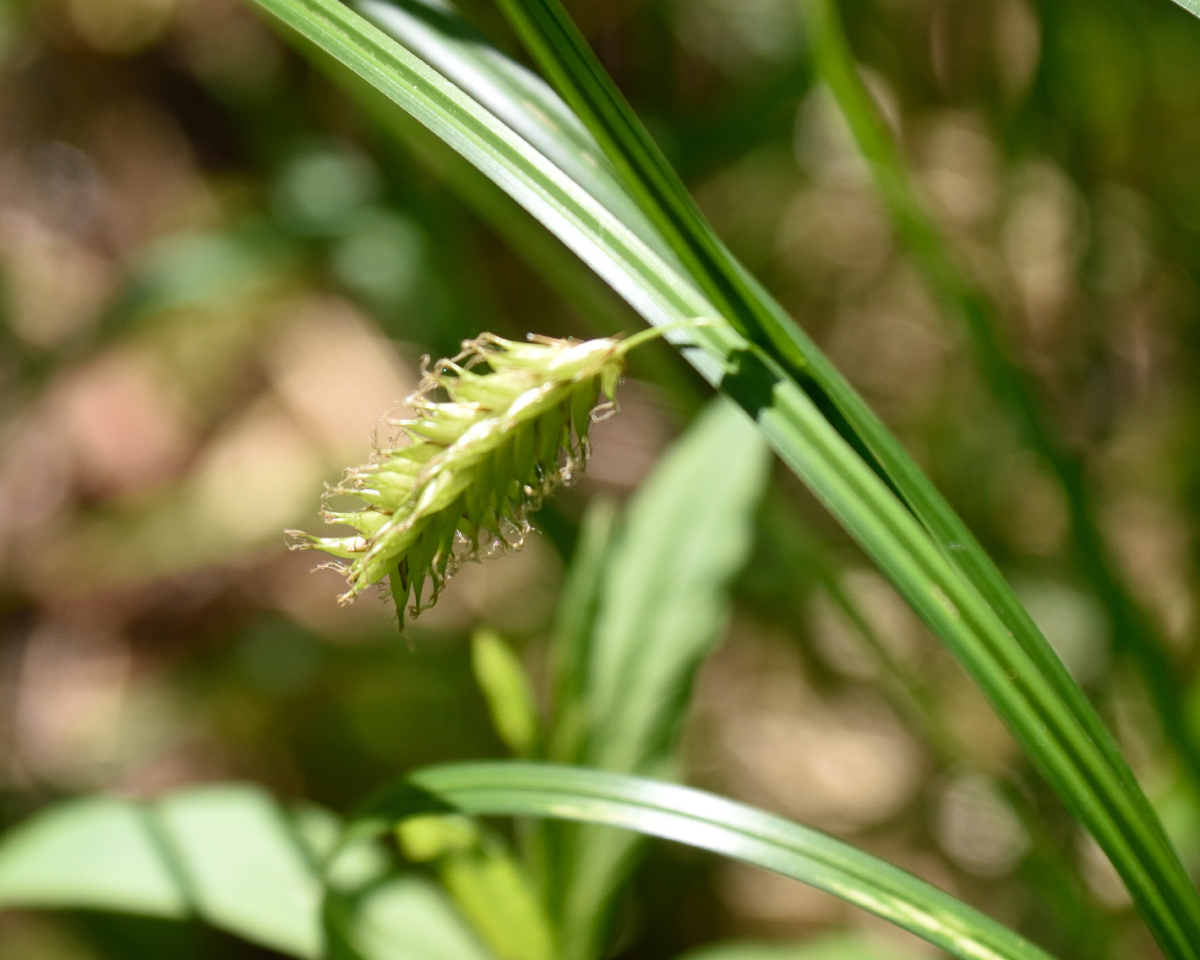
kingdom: Plantae
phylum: Tracheophyta
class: Liliopsida
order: Poales
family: Cyperaceae
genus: Carex
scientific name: Carex vesicaria
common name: Bladder-sedge
